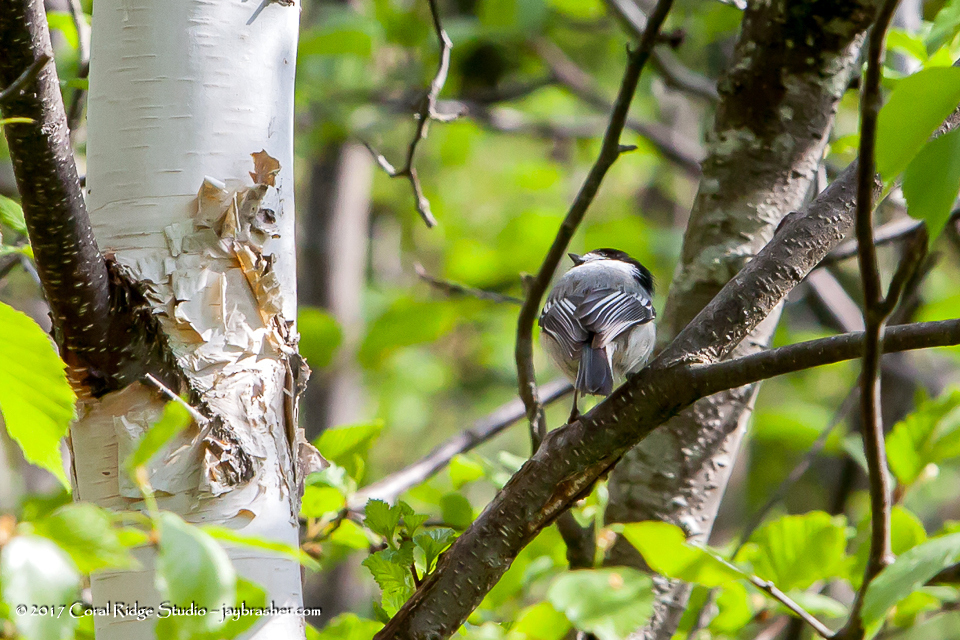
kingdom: Animalia
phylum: Chordata
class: Aves
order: Passeriformes
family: Paridae
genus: Poecile
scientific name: Poecile atricapillus
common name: Black-capped chickadee
